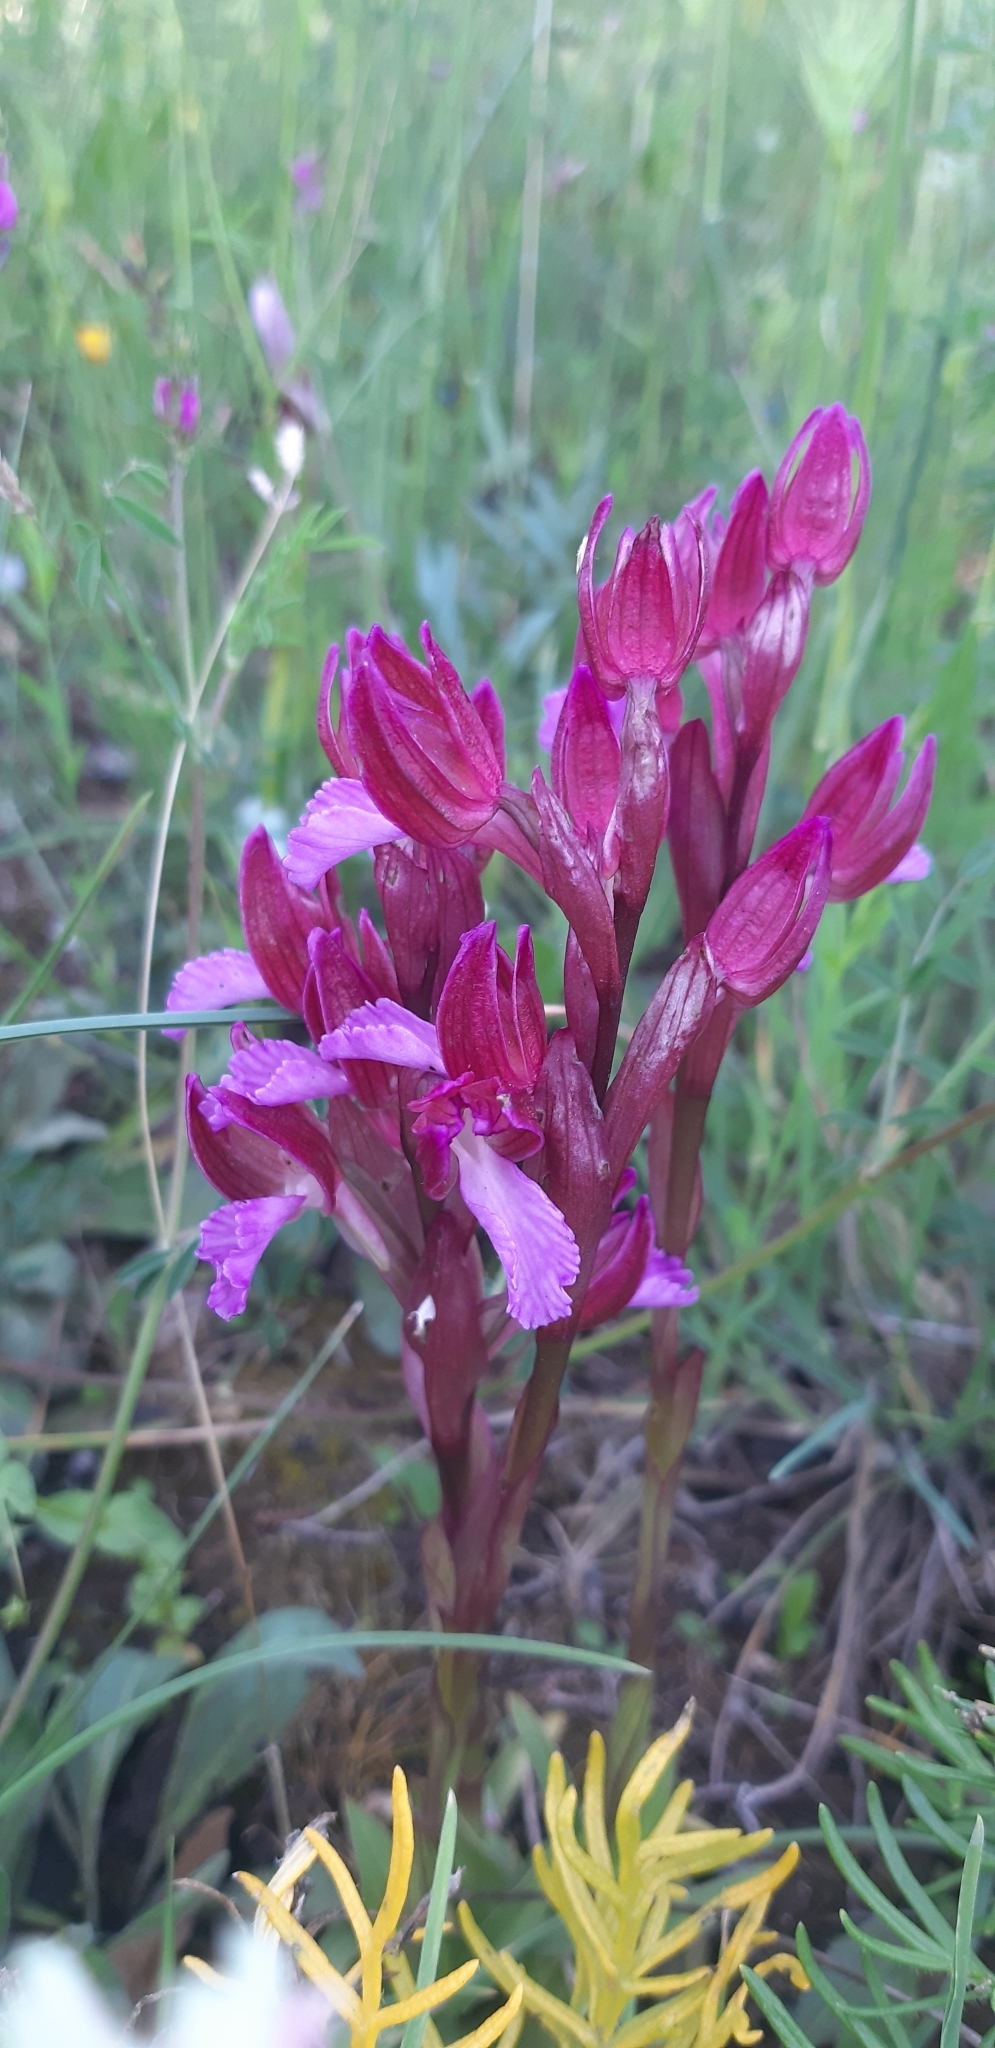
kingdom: Plantae
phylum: Tracheophyta
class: Liliopsida
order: Asparagales
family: Orchidaceae
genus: Anacamptis
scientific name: Anacamptis papilionacea
